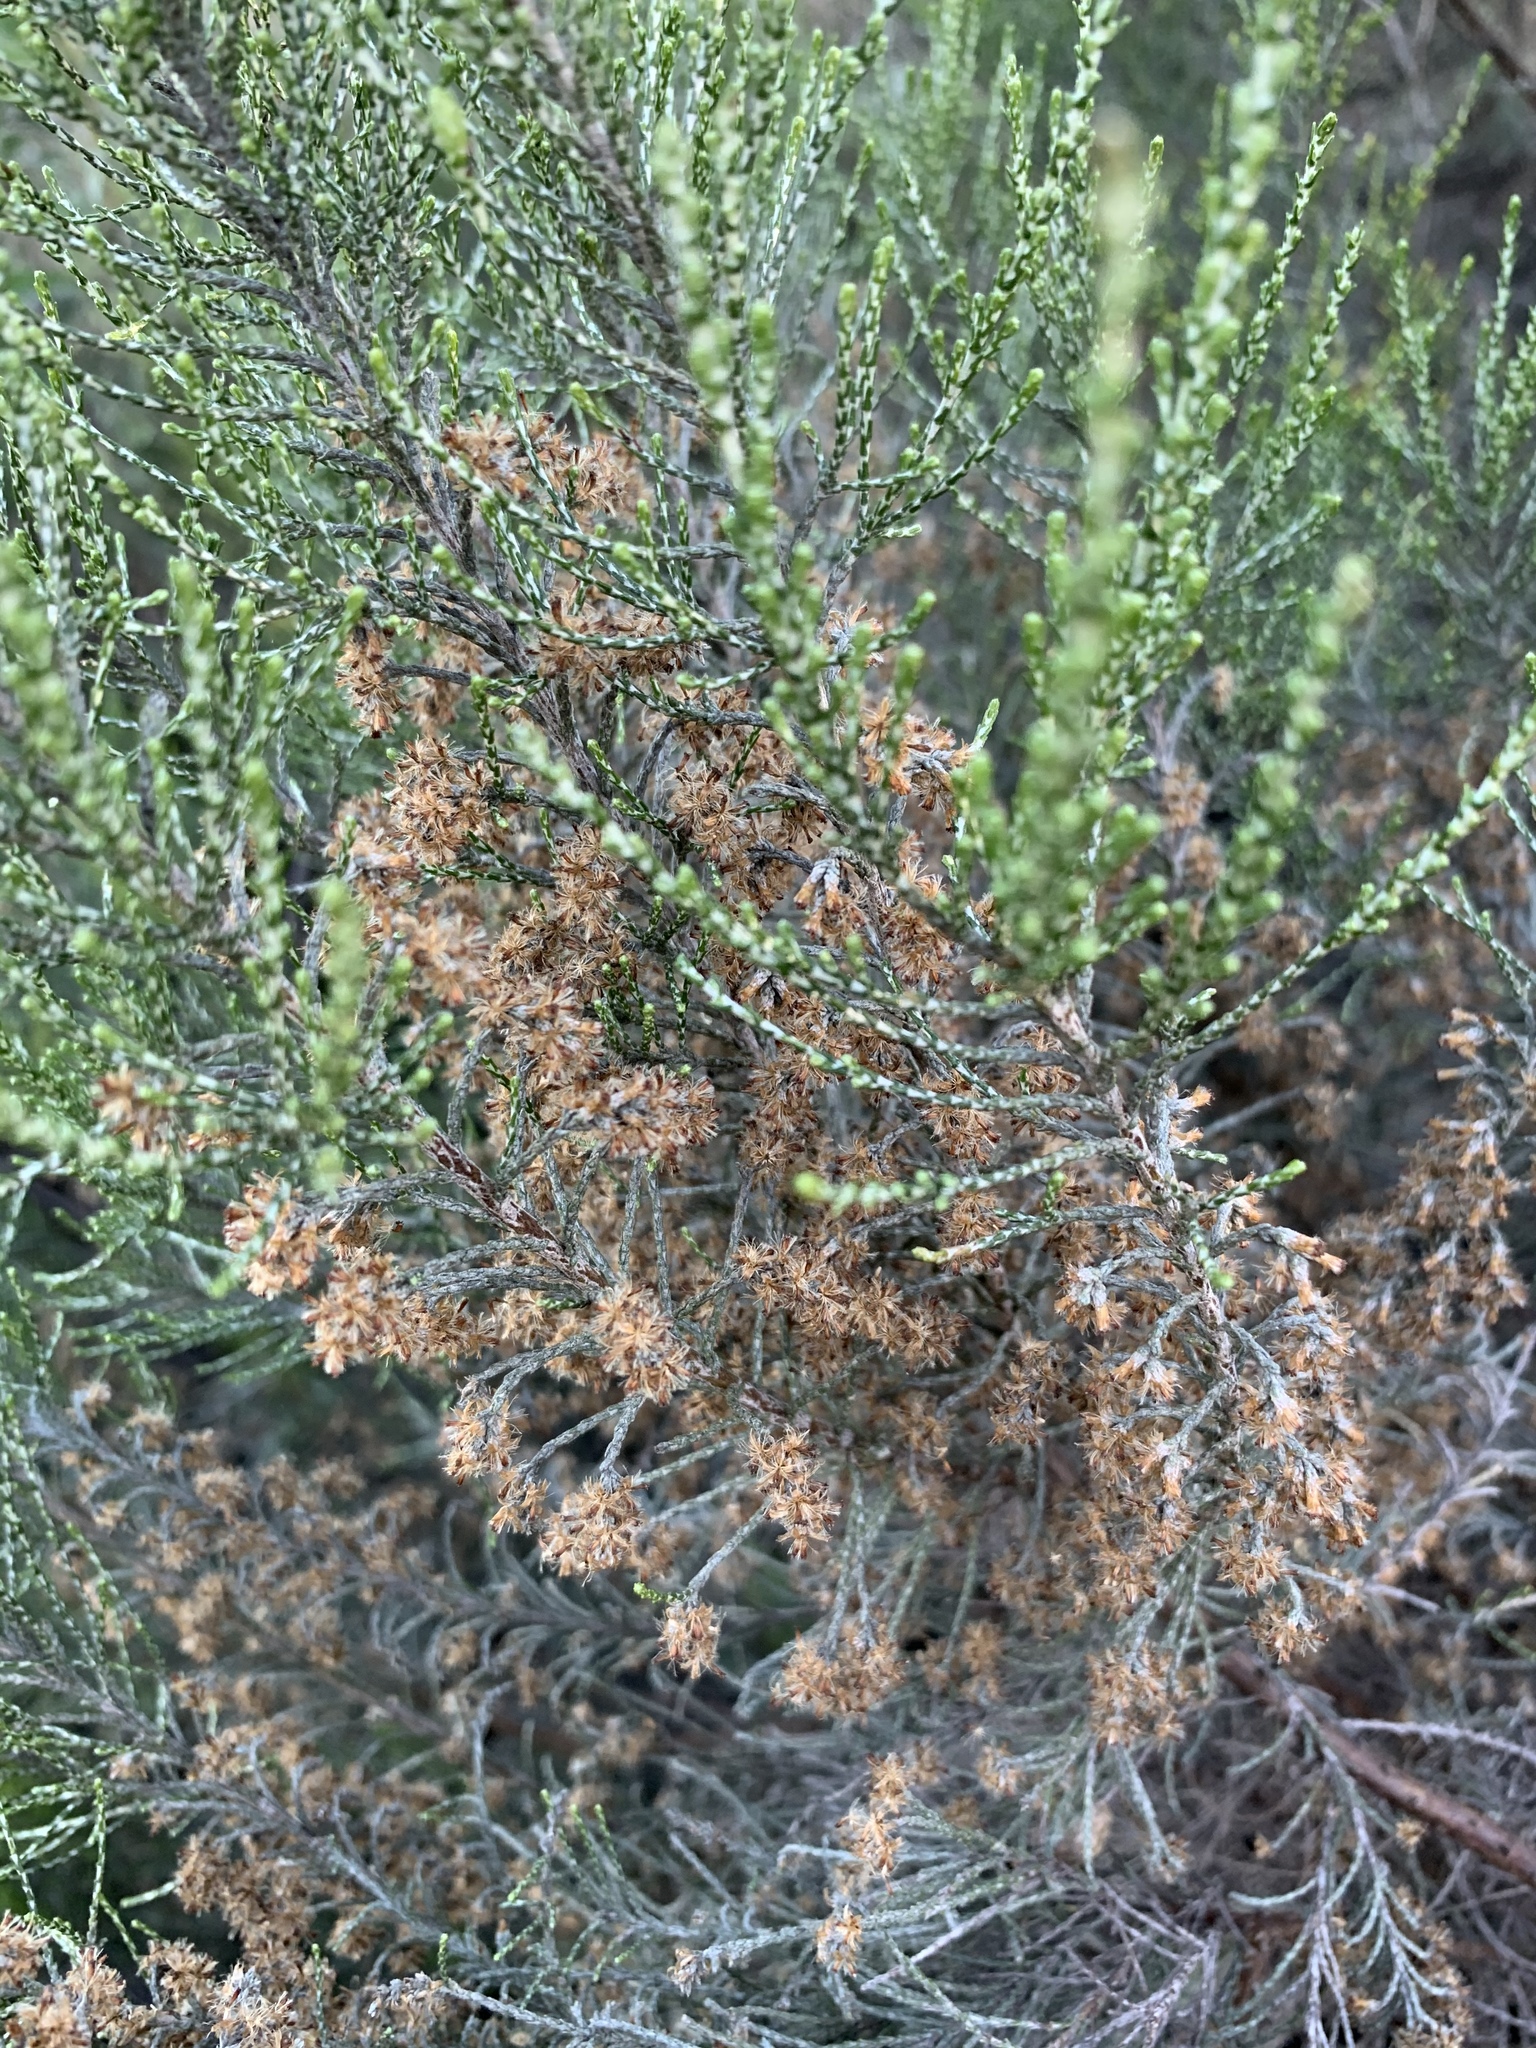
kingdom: Plantae
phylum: Tracheophyta
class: Magnoliopsida
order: Asterales
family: Asteraceae
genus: Dicerothamnus
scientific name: Dicerothamnus rhinocerotis
